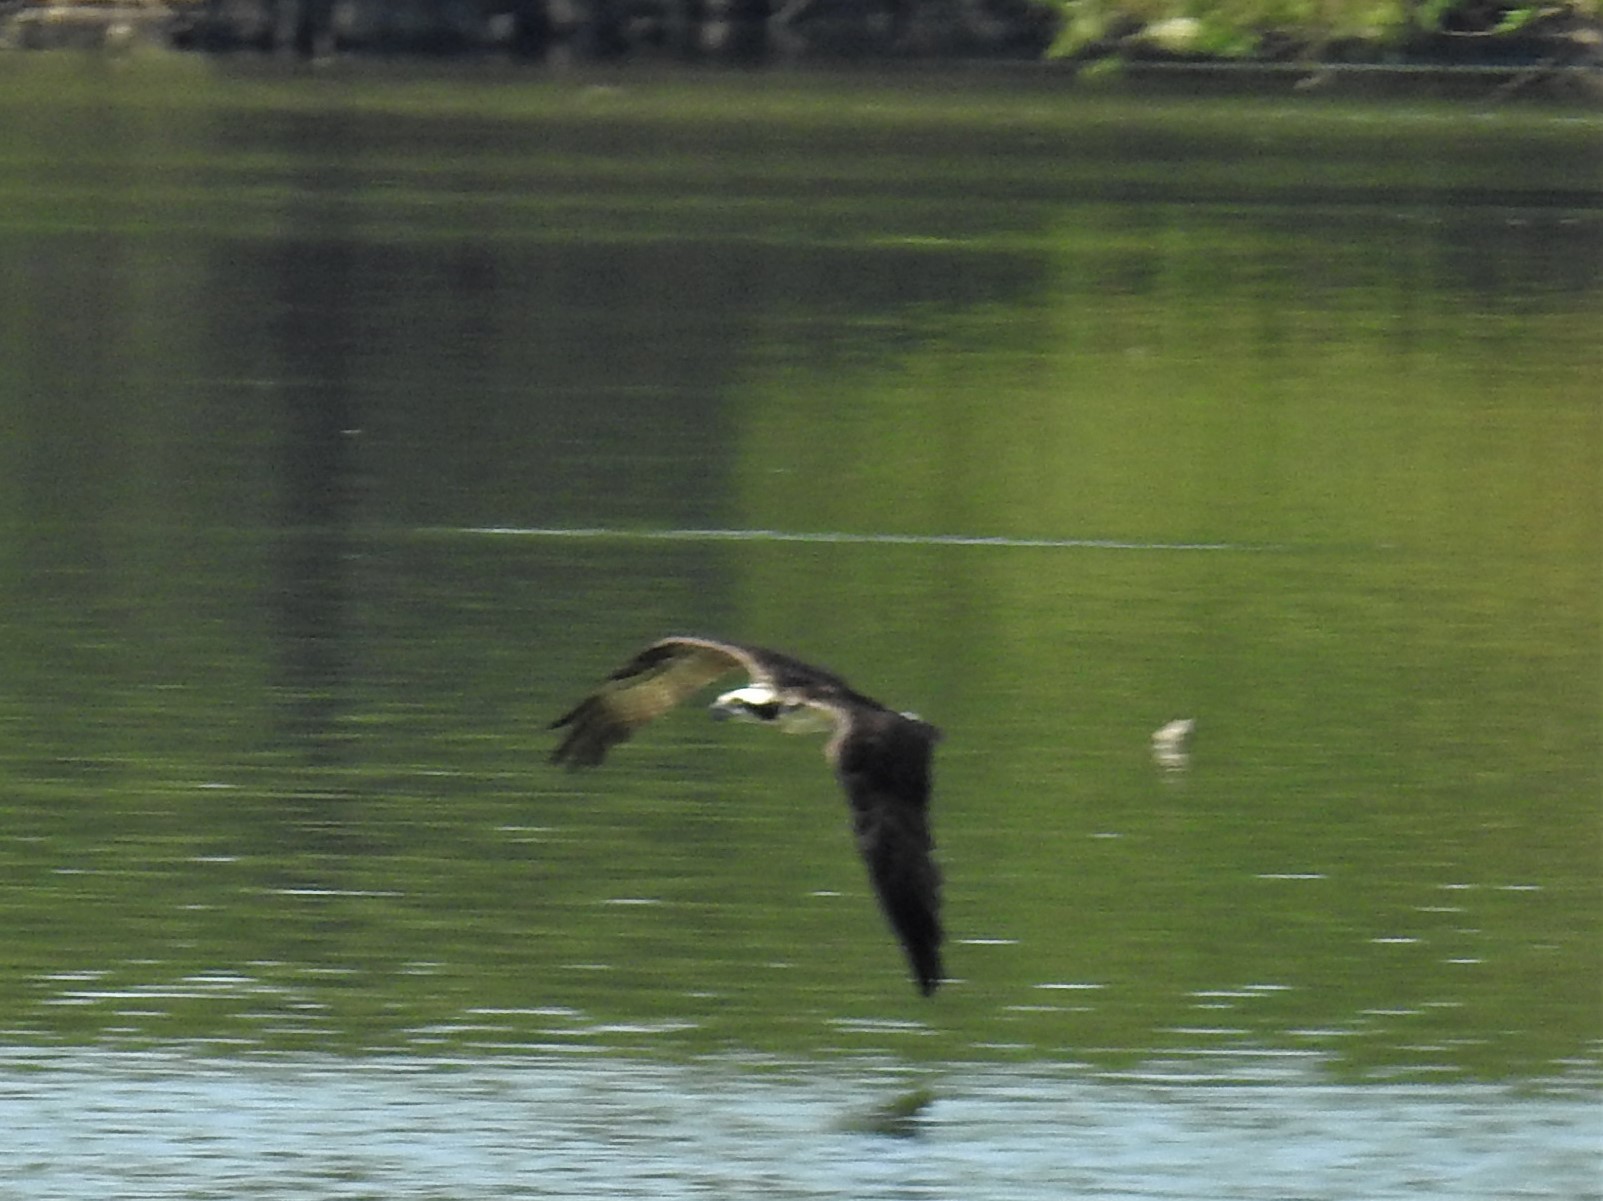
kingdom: Animalia
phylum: Chordata
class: Aves
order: Accipitriformes
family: Pandionidae
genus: Pandion
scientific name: Pandion haliaetus
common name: Osprey
